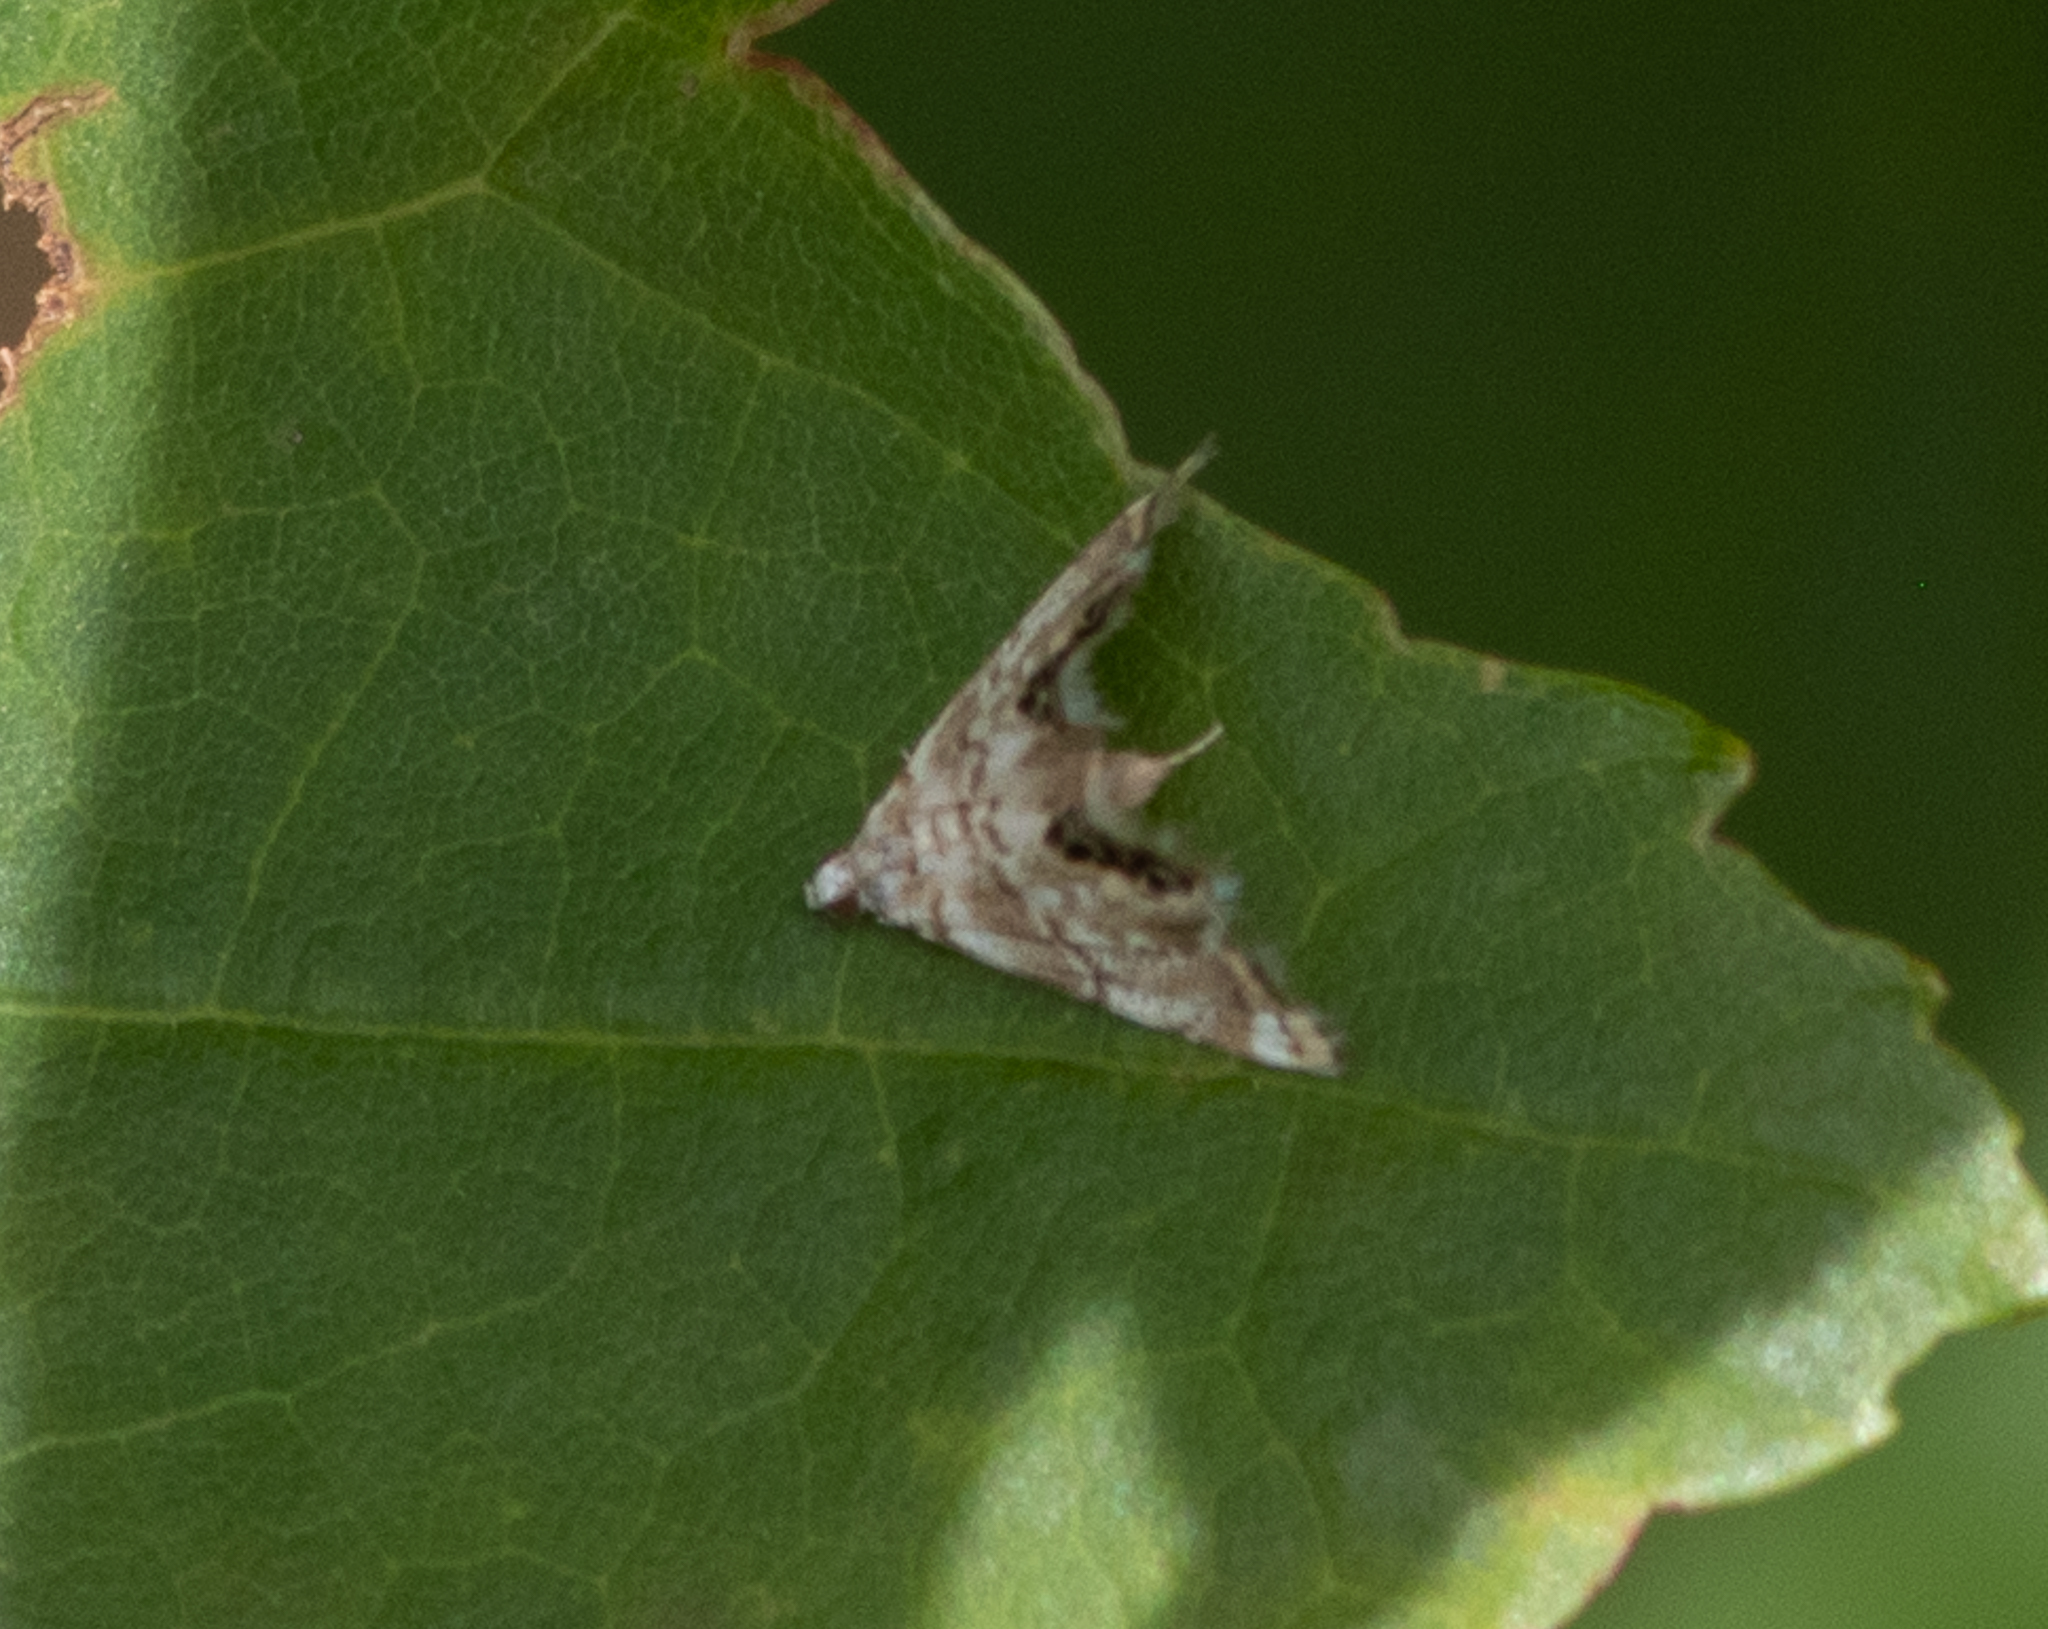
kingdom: Animalia
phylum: Arthropoda
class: Insecta
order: Lepidoptera
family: Crambidae
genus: Eoparargyractis
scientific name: Eoparargyractis plevie
